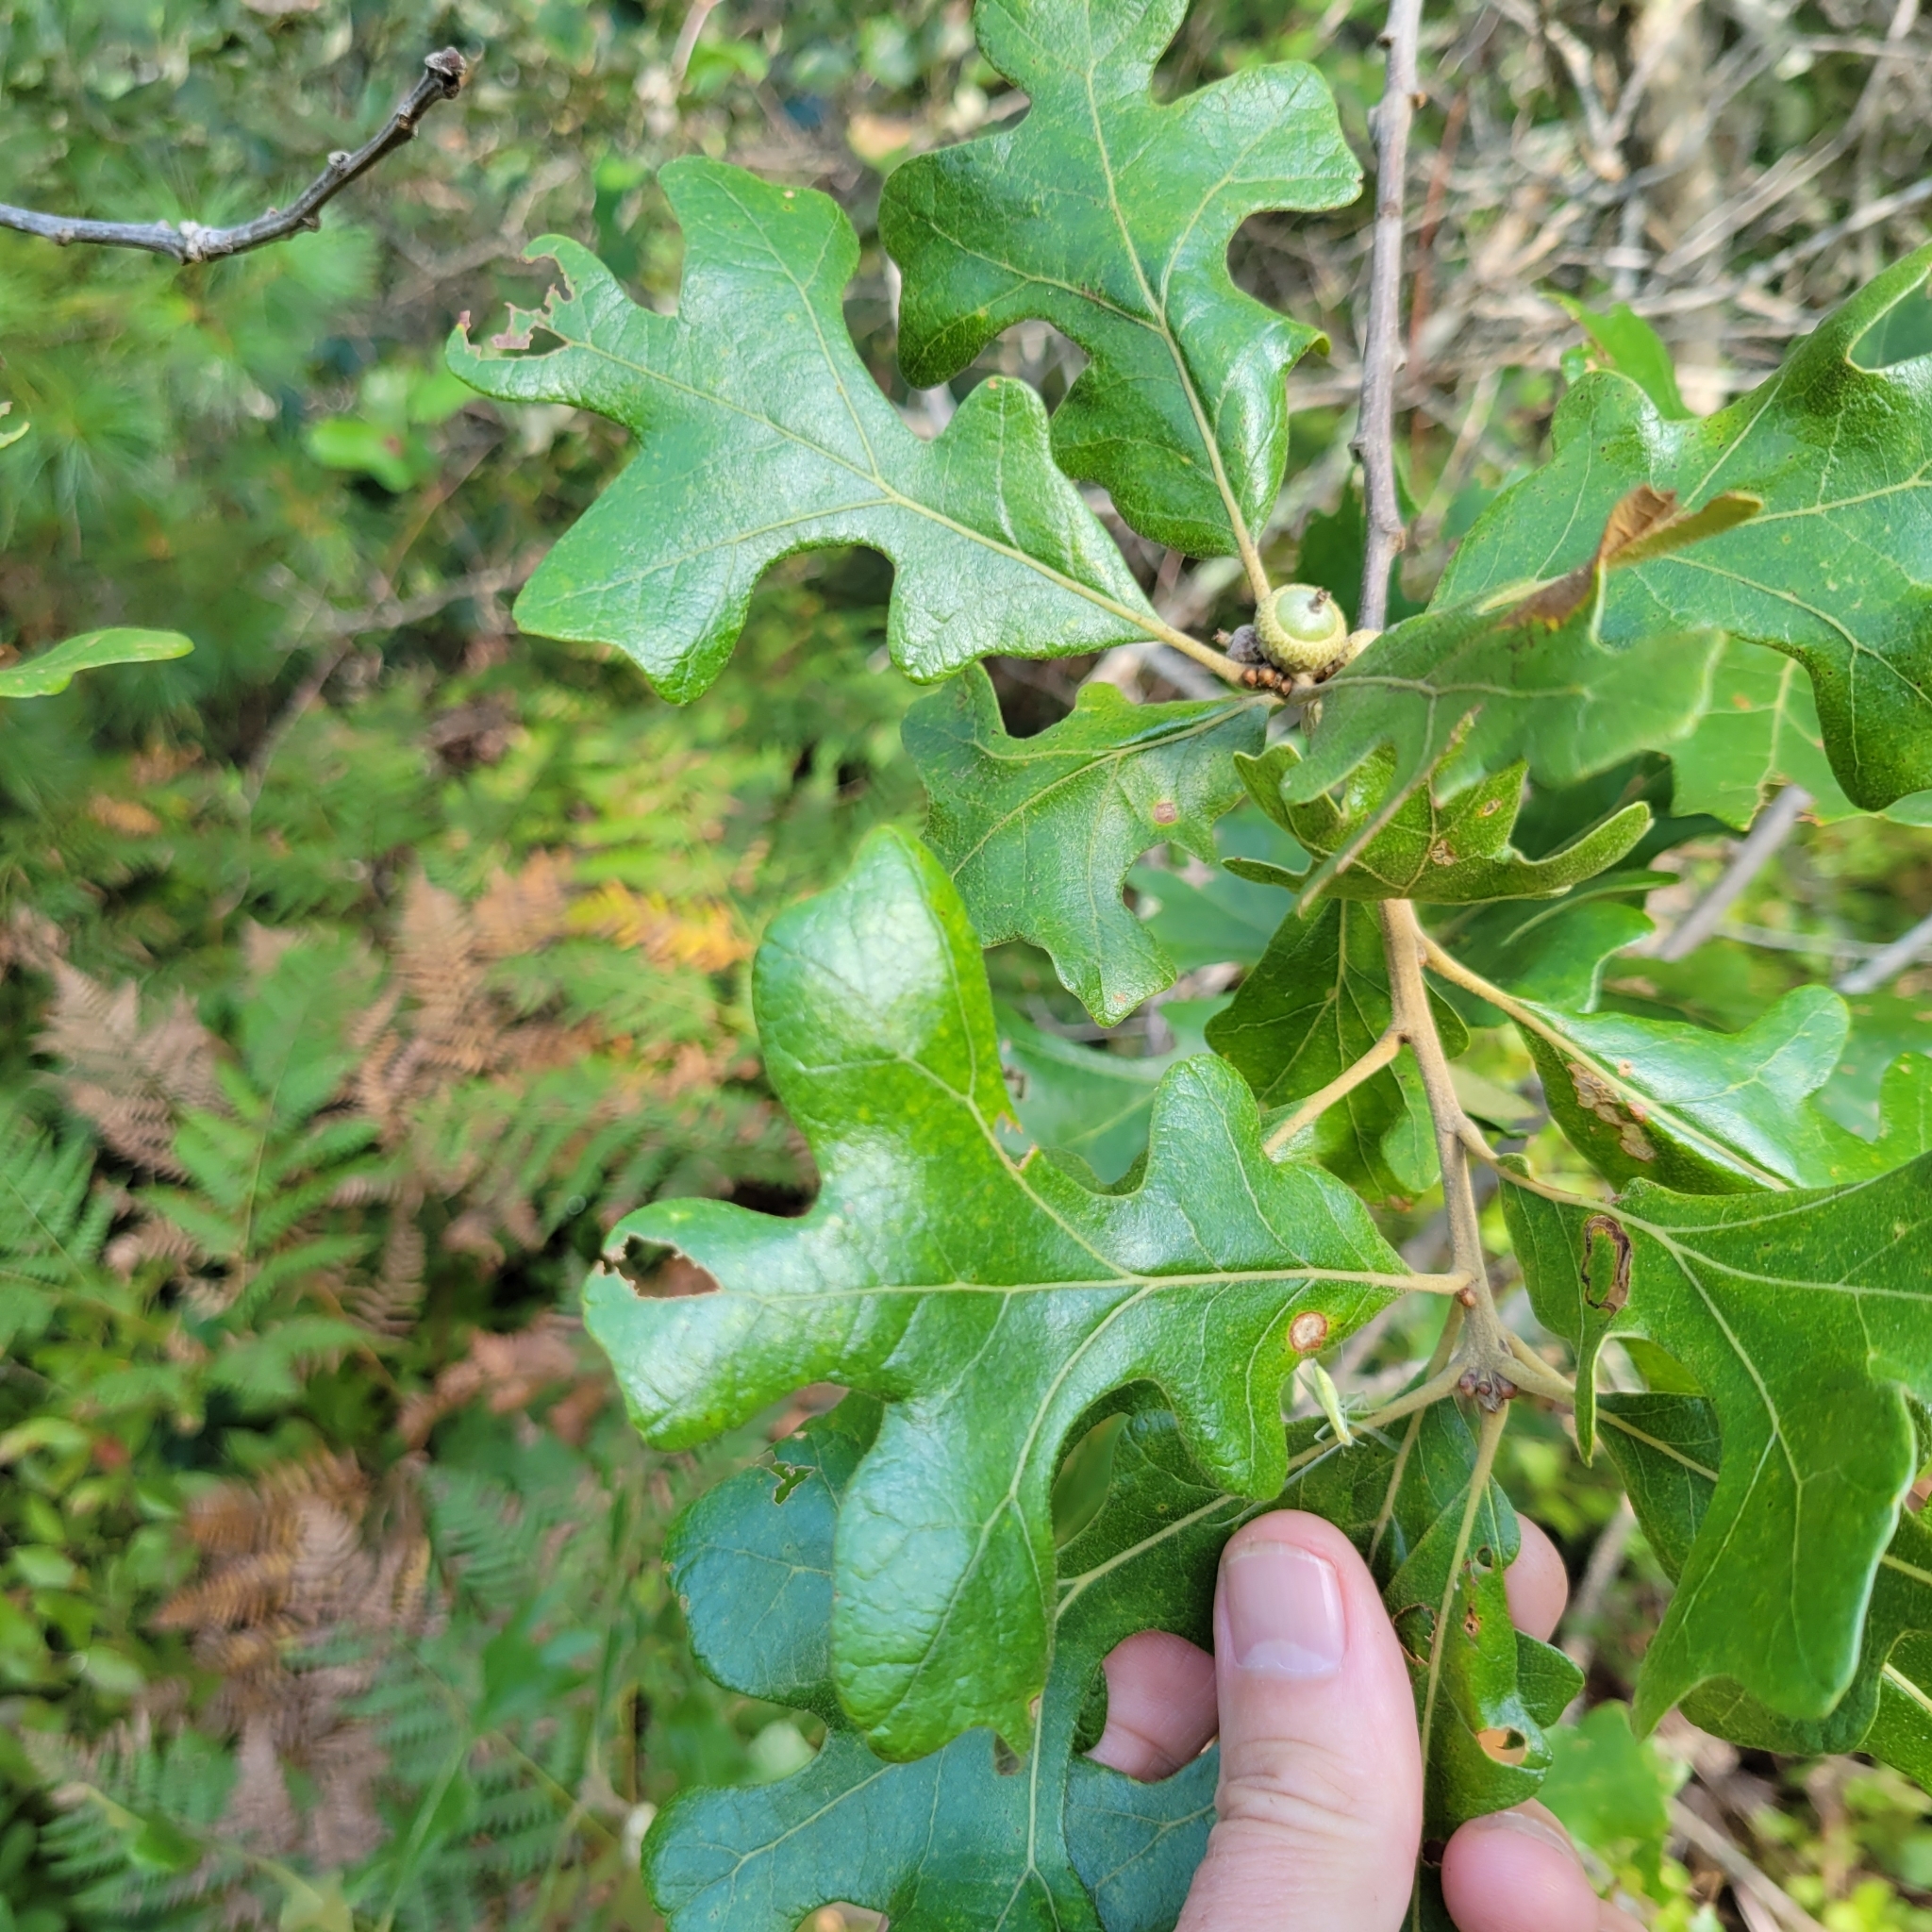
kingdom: Plantae
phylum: Tracheophyta
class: Magnoliopsida
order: Fagales
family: Fagaceae
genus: Quercus
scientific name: Quercus stellata
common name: Post oak
